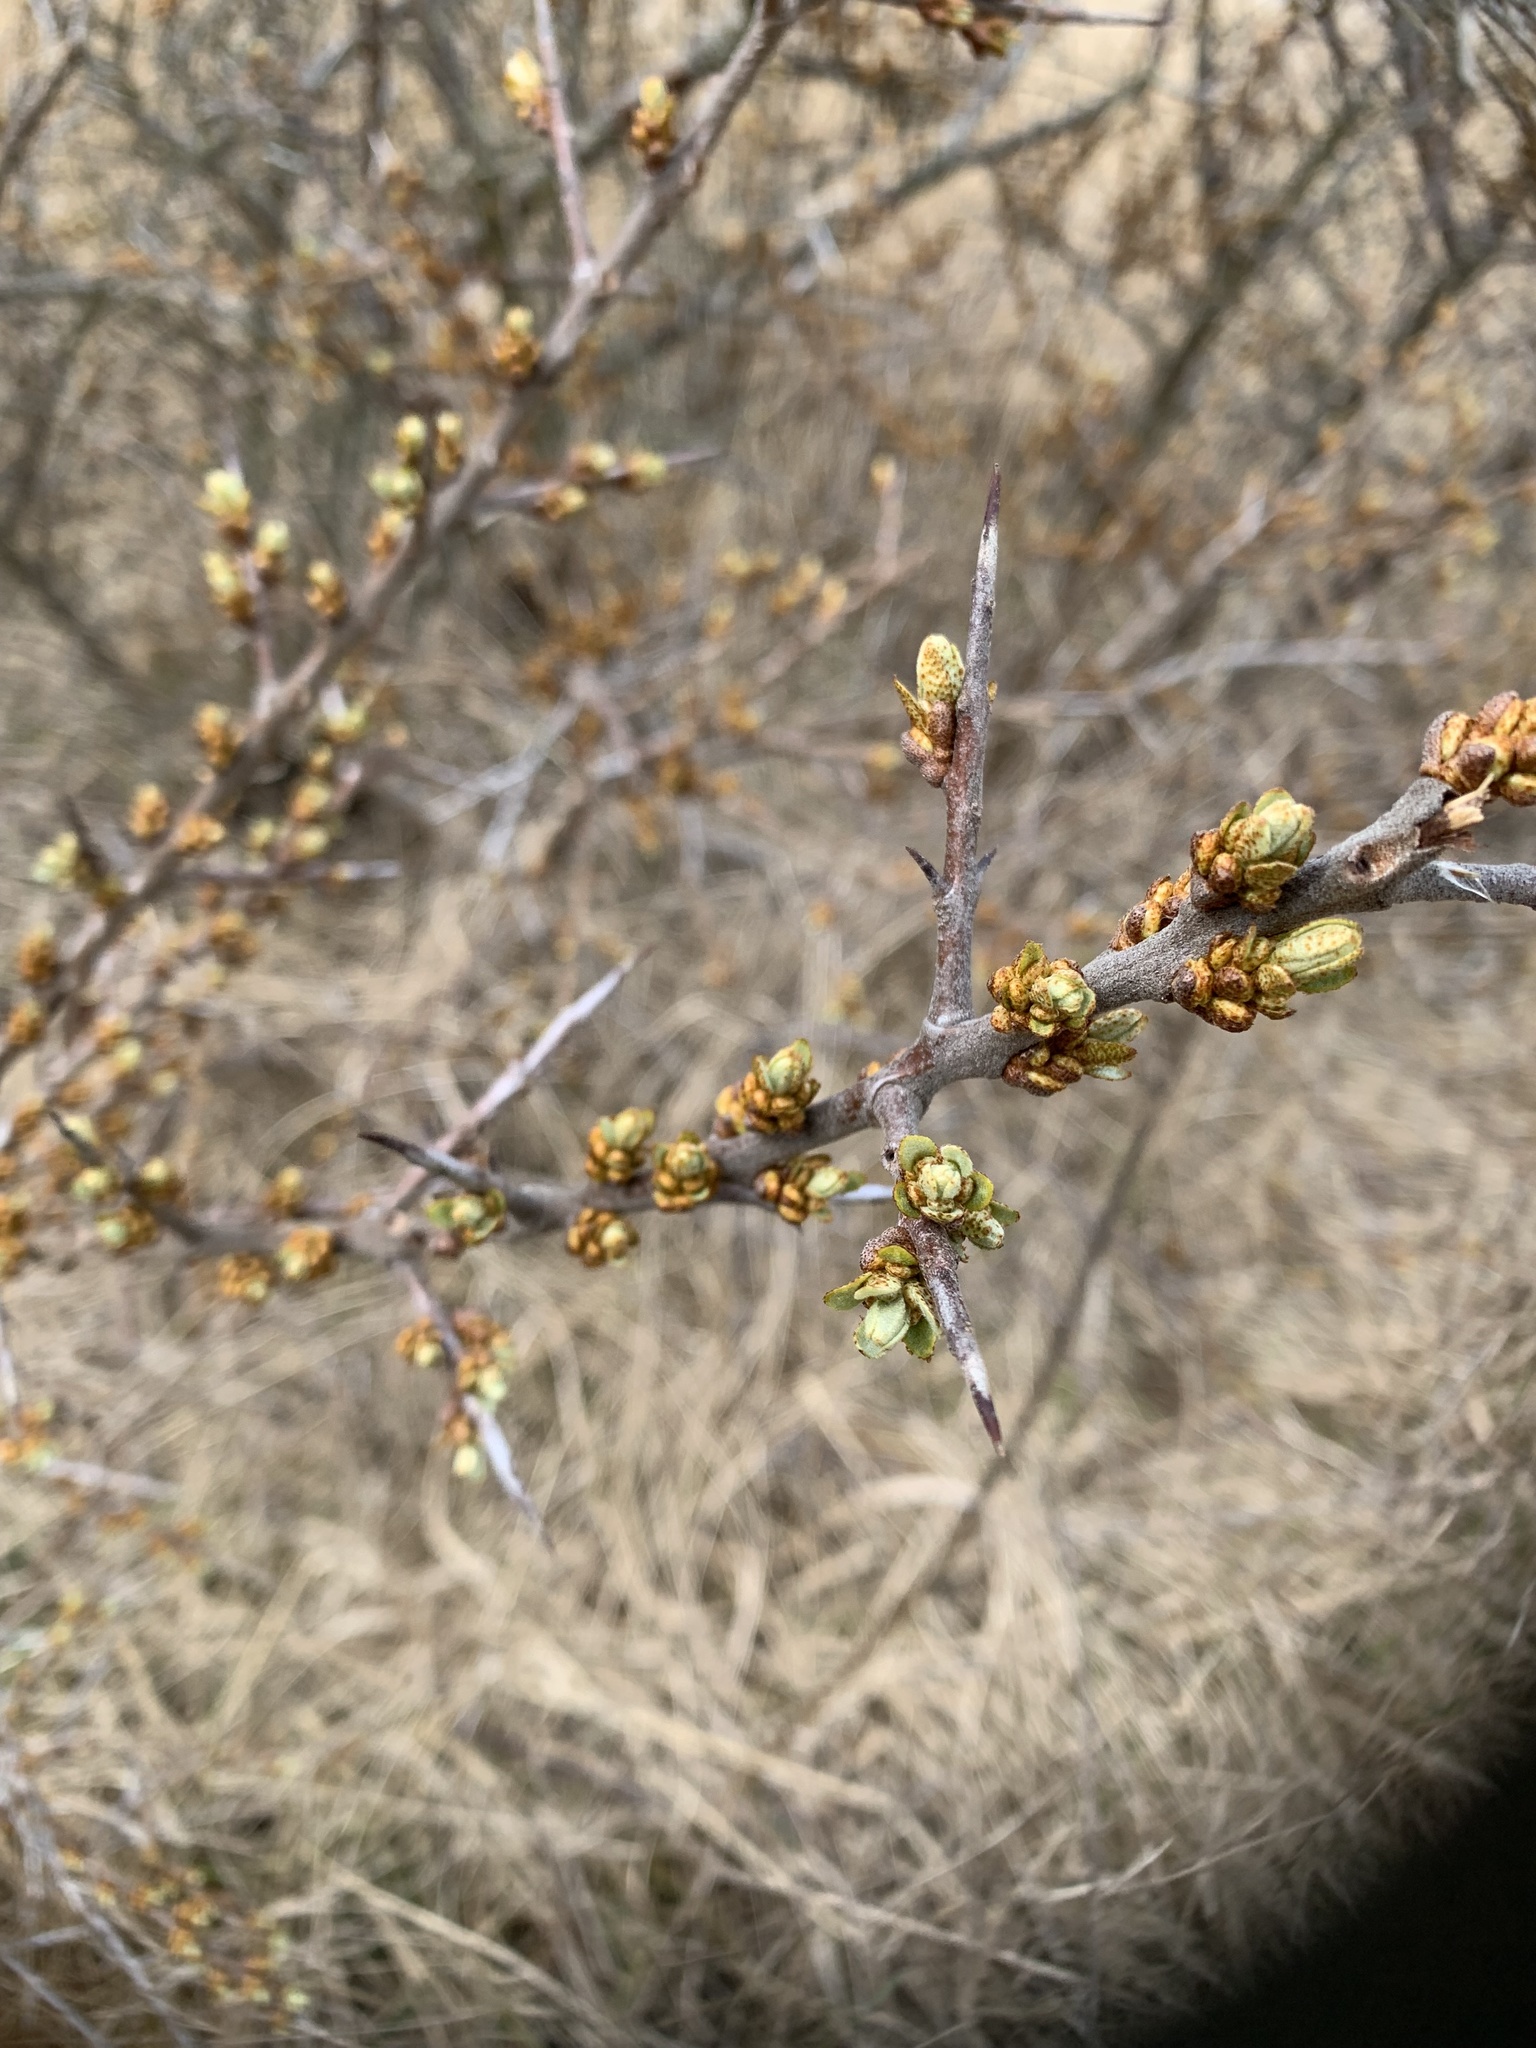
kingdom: Plantae
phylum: Tracheophyta
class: Magnoliopsida
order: Rosales
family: Elaeagnaceae
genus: Hippophae
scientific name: Hippophae rhamnoides
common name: Sea-buckthorn
